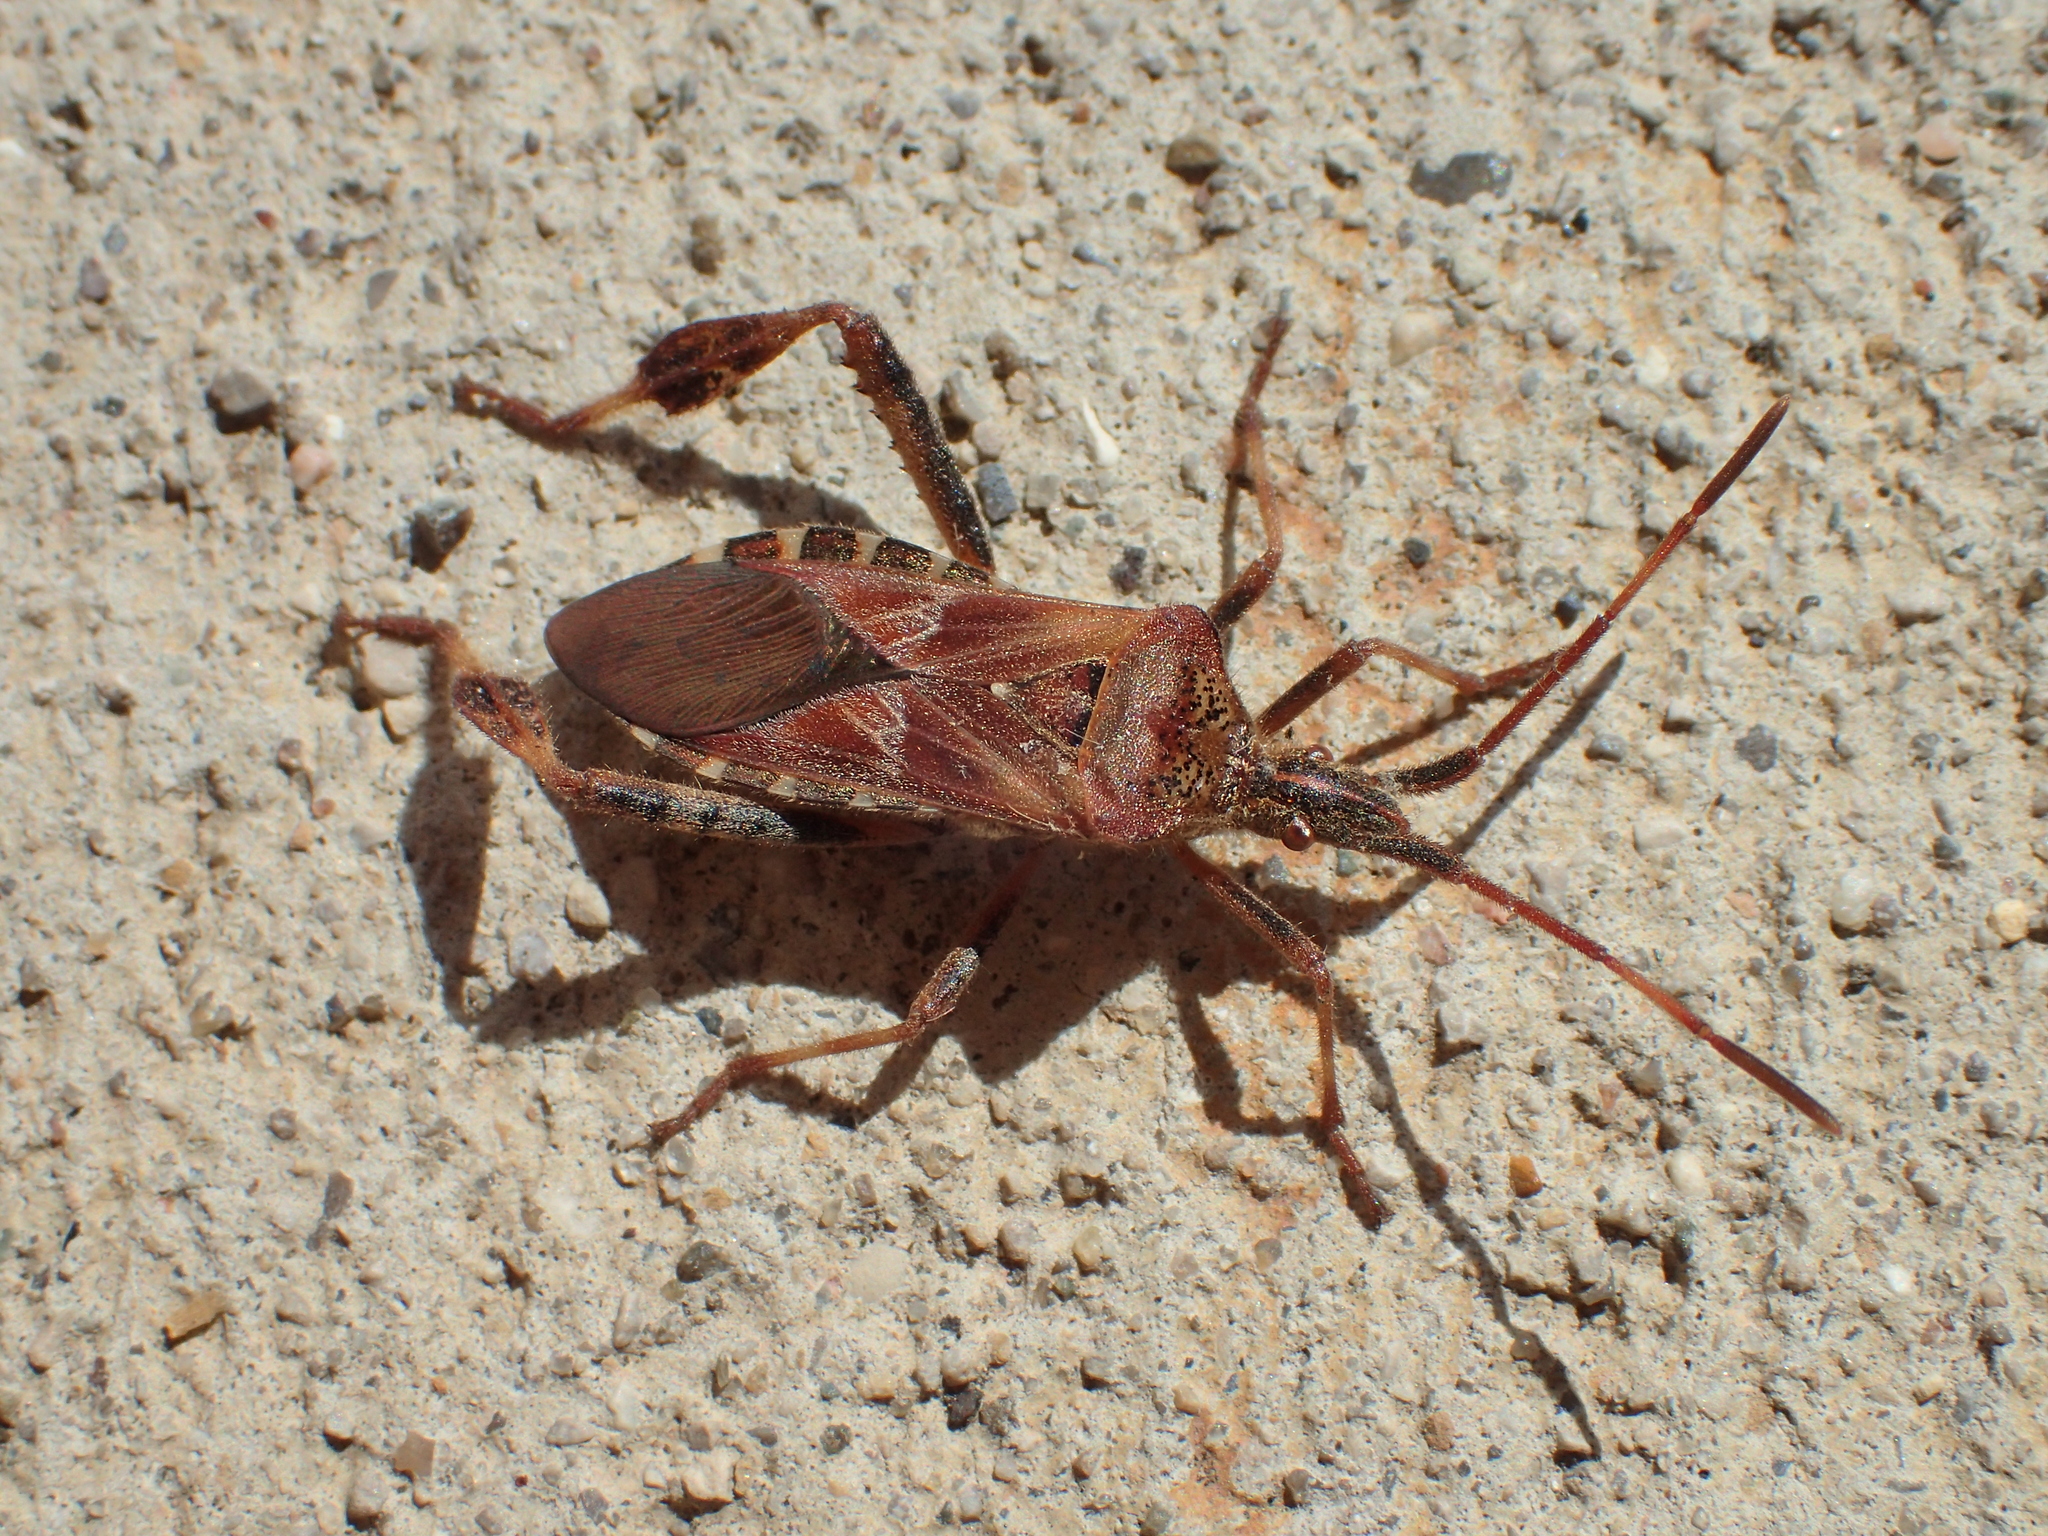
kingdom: Animalia
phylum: Arthropoda
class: Insecta
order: Hemiptera
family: Coreidae
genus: Leptoglossus
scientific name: Leptoglossus occidentalis
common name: Western conifer-seed bug
